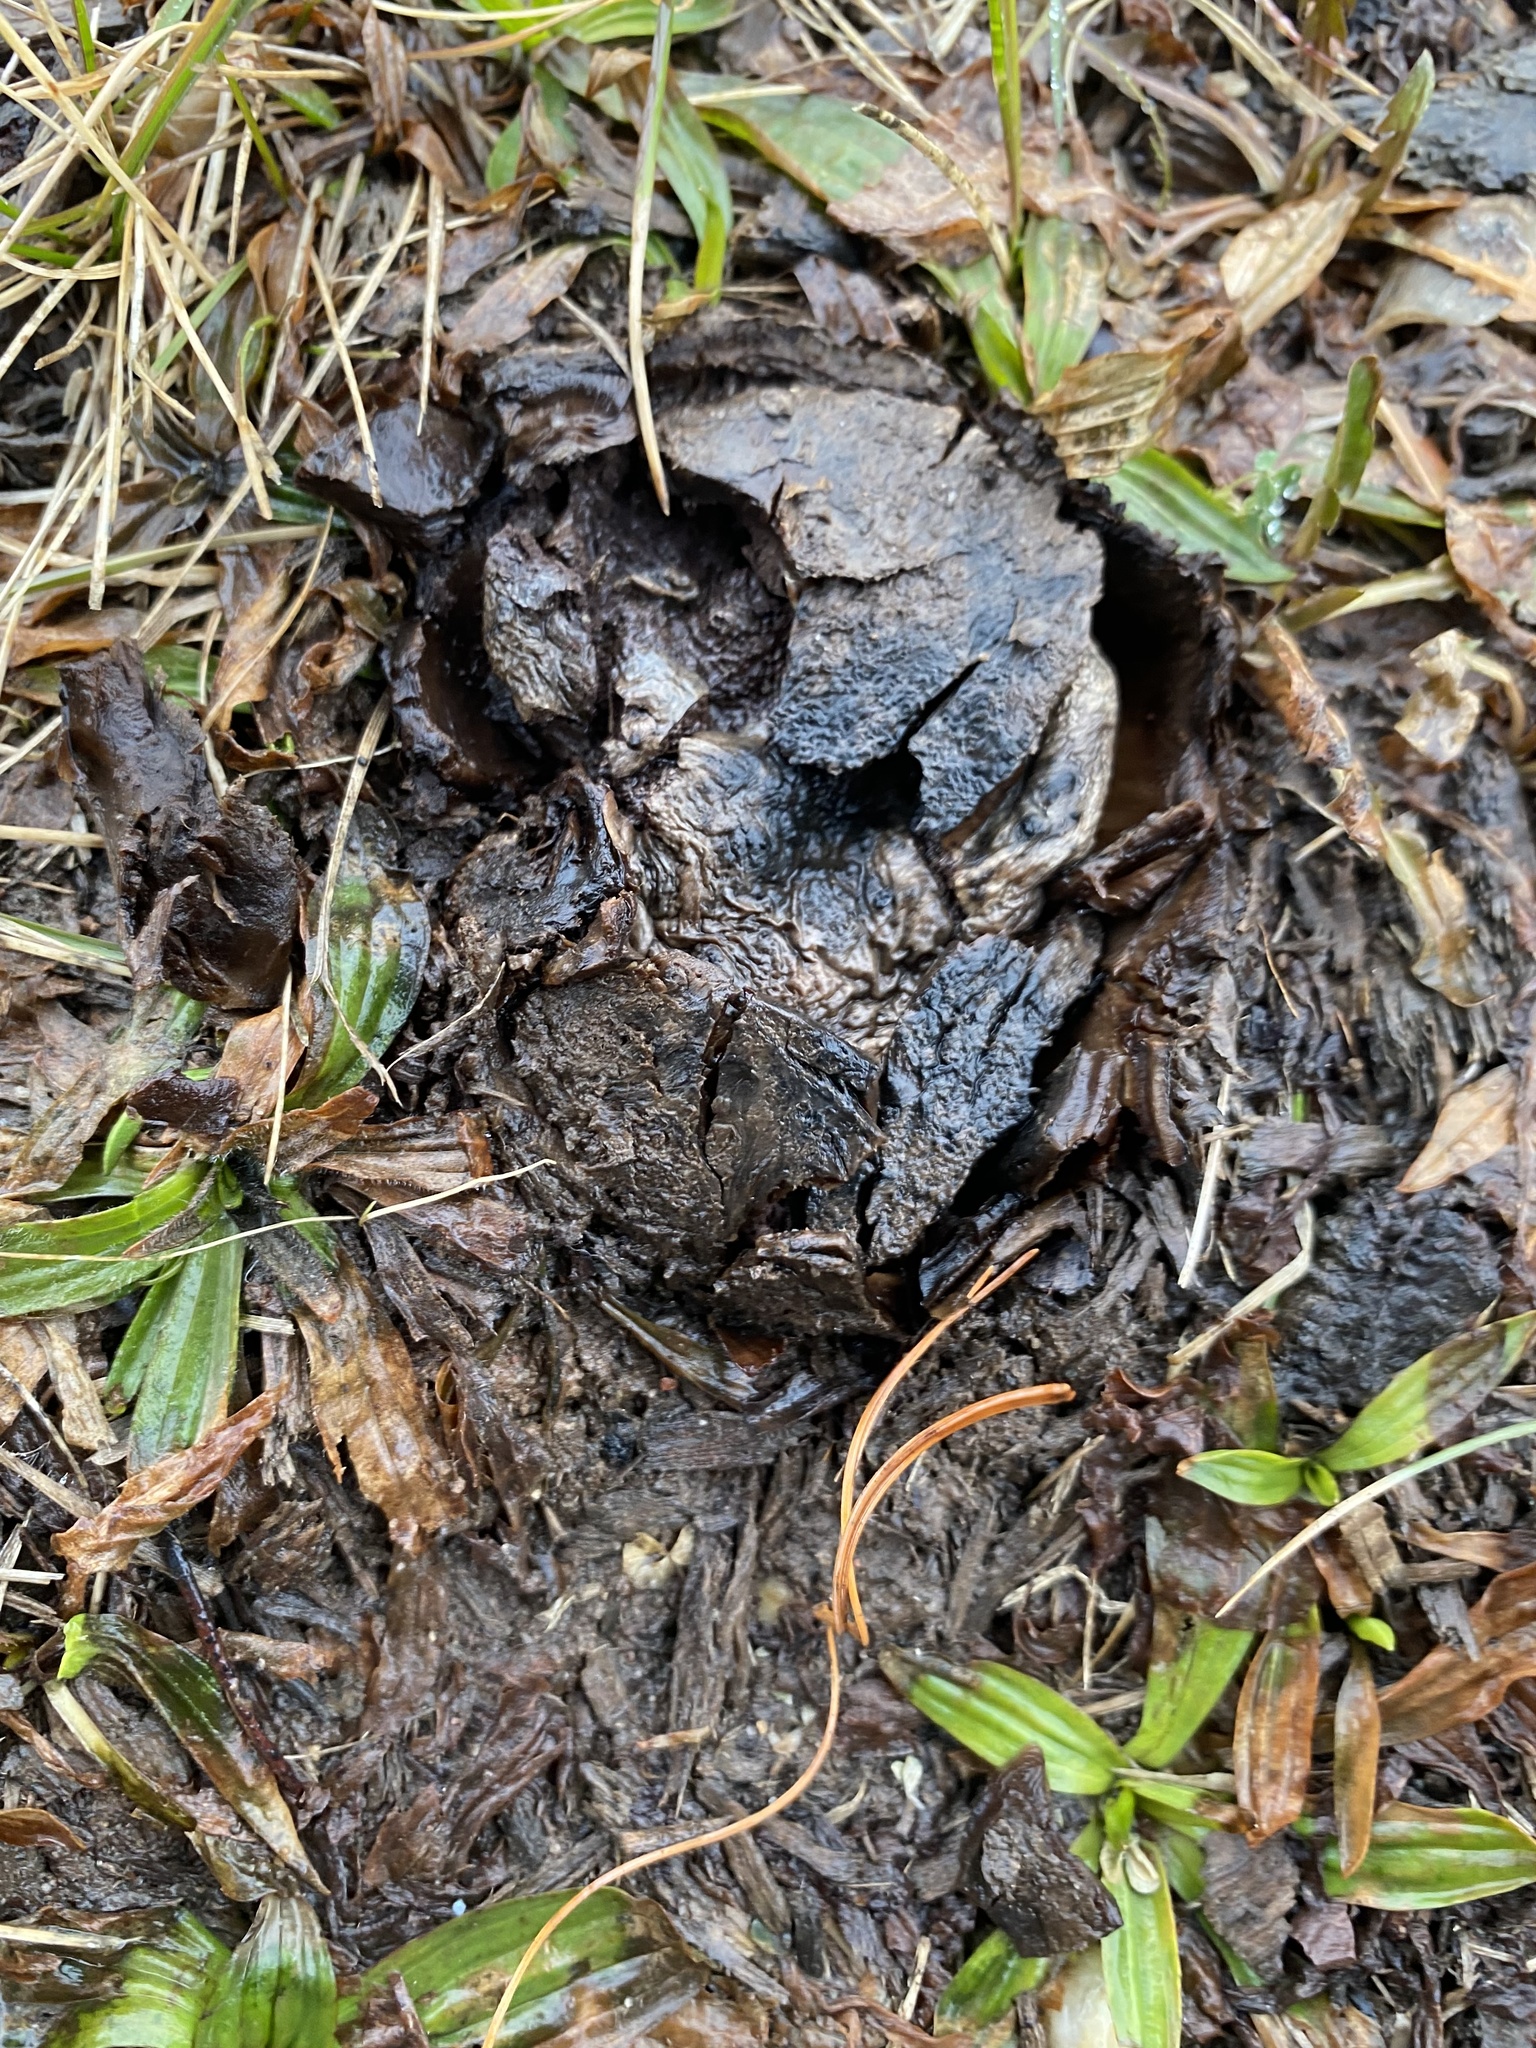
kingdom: Fungi
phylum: Basidiomycota
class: Agaricomycetes
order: Boletales
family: Sclerodermataceae
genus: Scleroderma
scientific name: Scleroderma polyrhizum
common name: Many-rooted earthball
